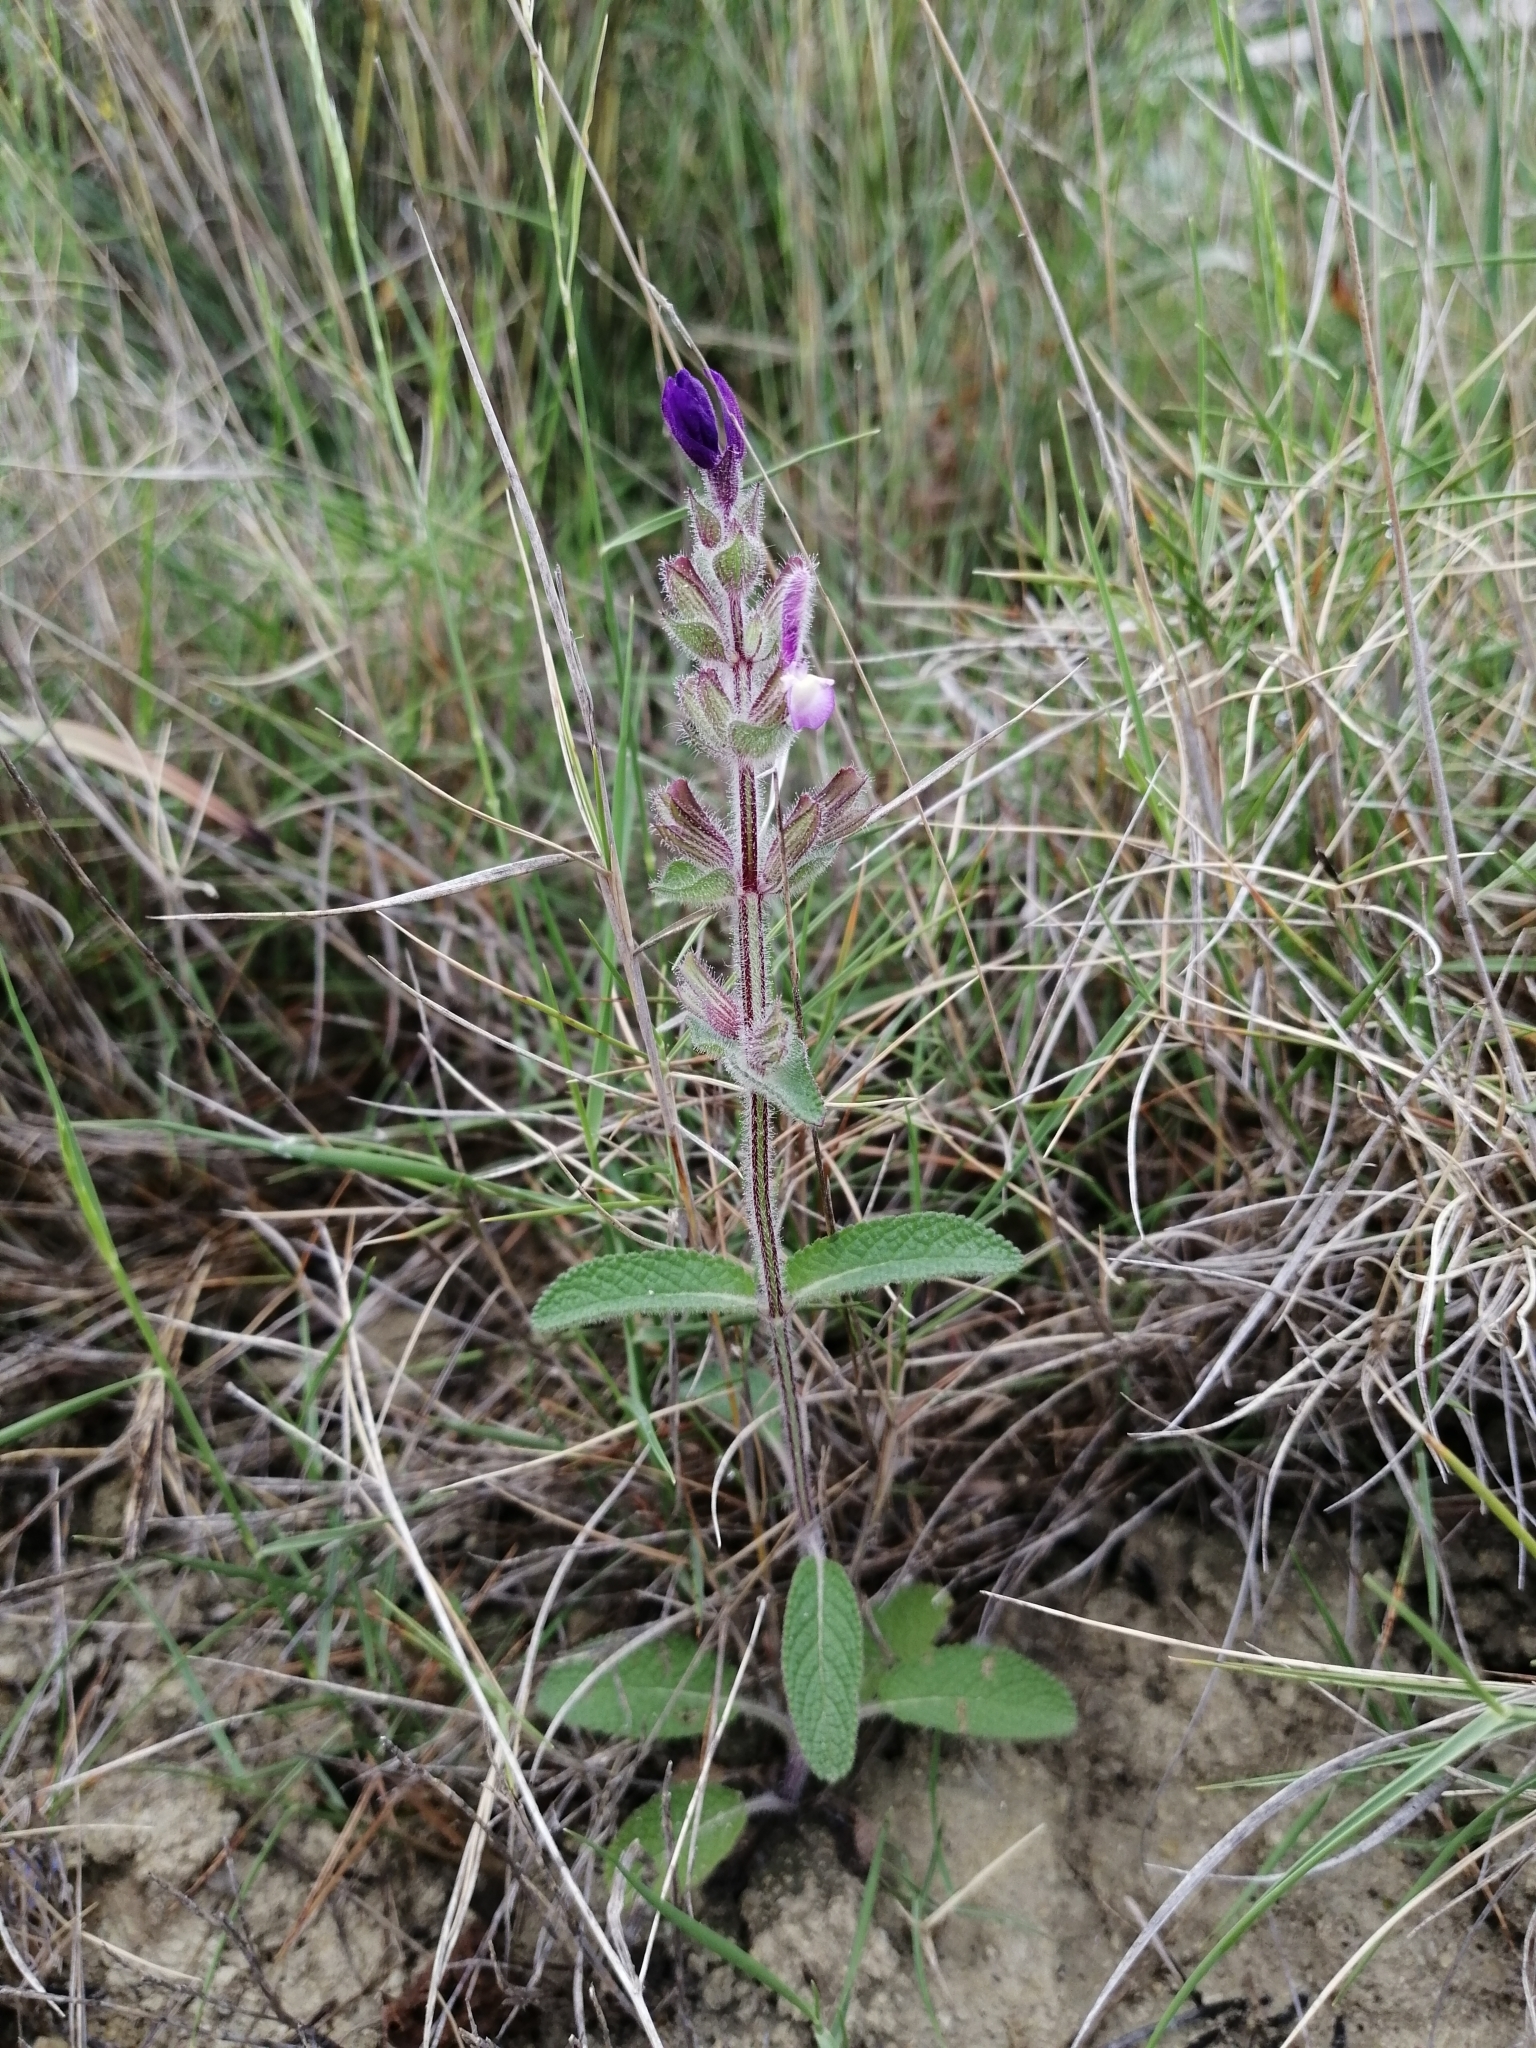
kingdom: Plantae
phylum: Tracheophyta
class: Magnoliopsida
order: Lamiales
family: Lamiaceae
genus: Salvia
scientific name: Salvia viridis
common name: Annual clary
